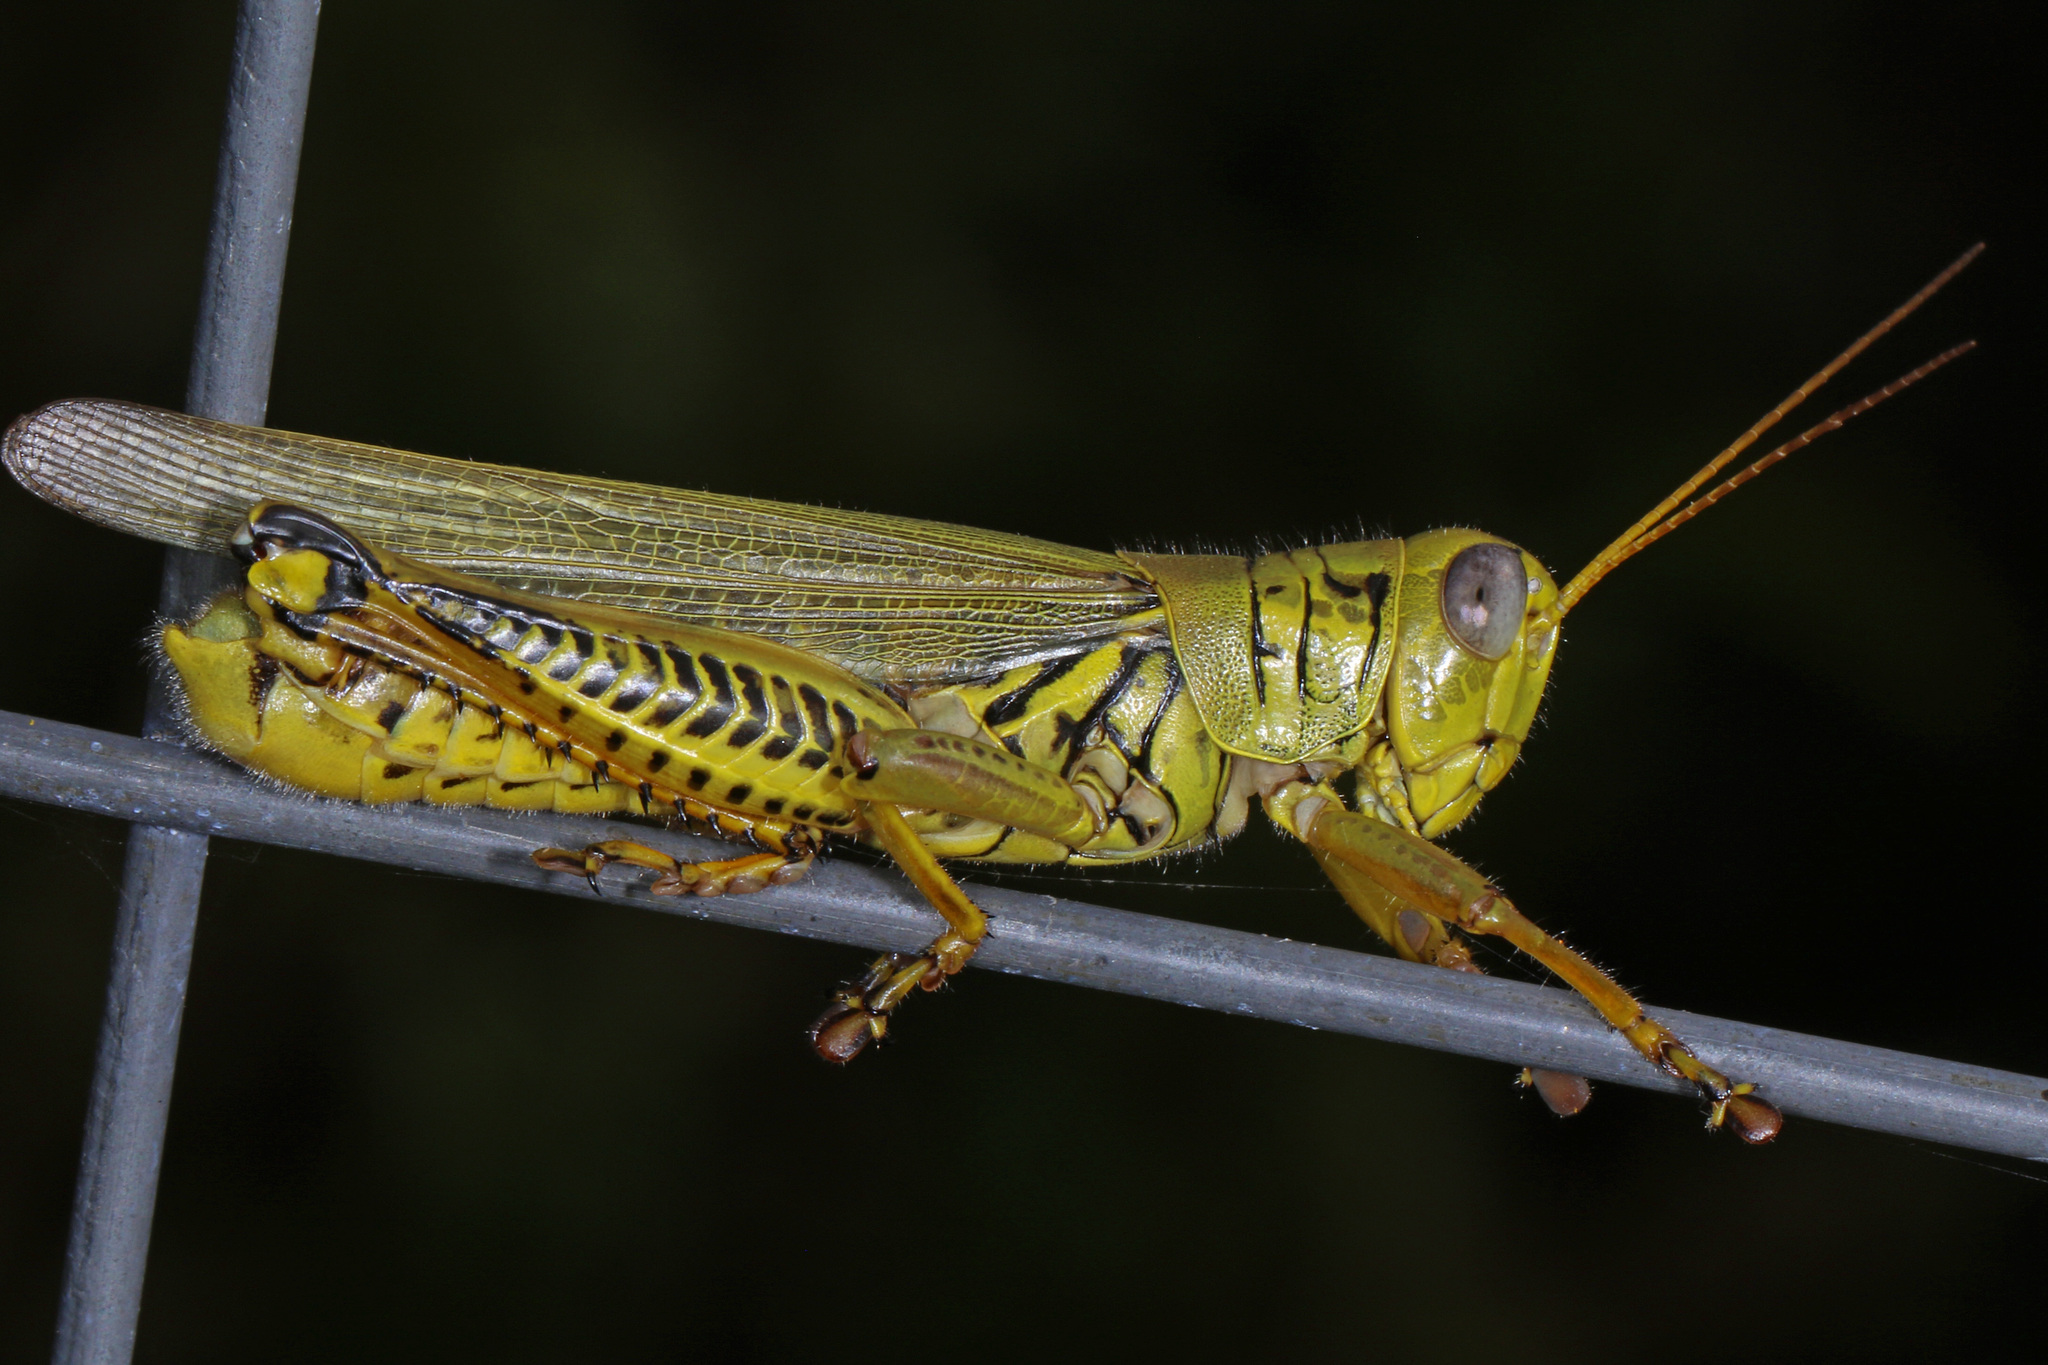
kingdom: Animalia
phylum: Arthropoda
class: Insecta
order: Orthoptera
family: Acrididae
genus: Melanoplus
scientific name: Melanoplus differentialis
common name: Differential grasshopper
